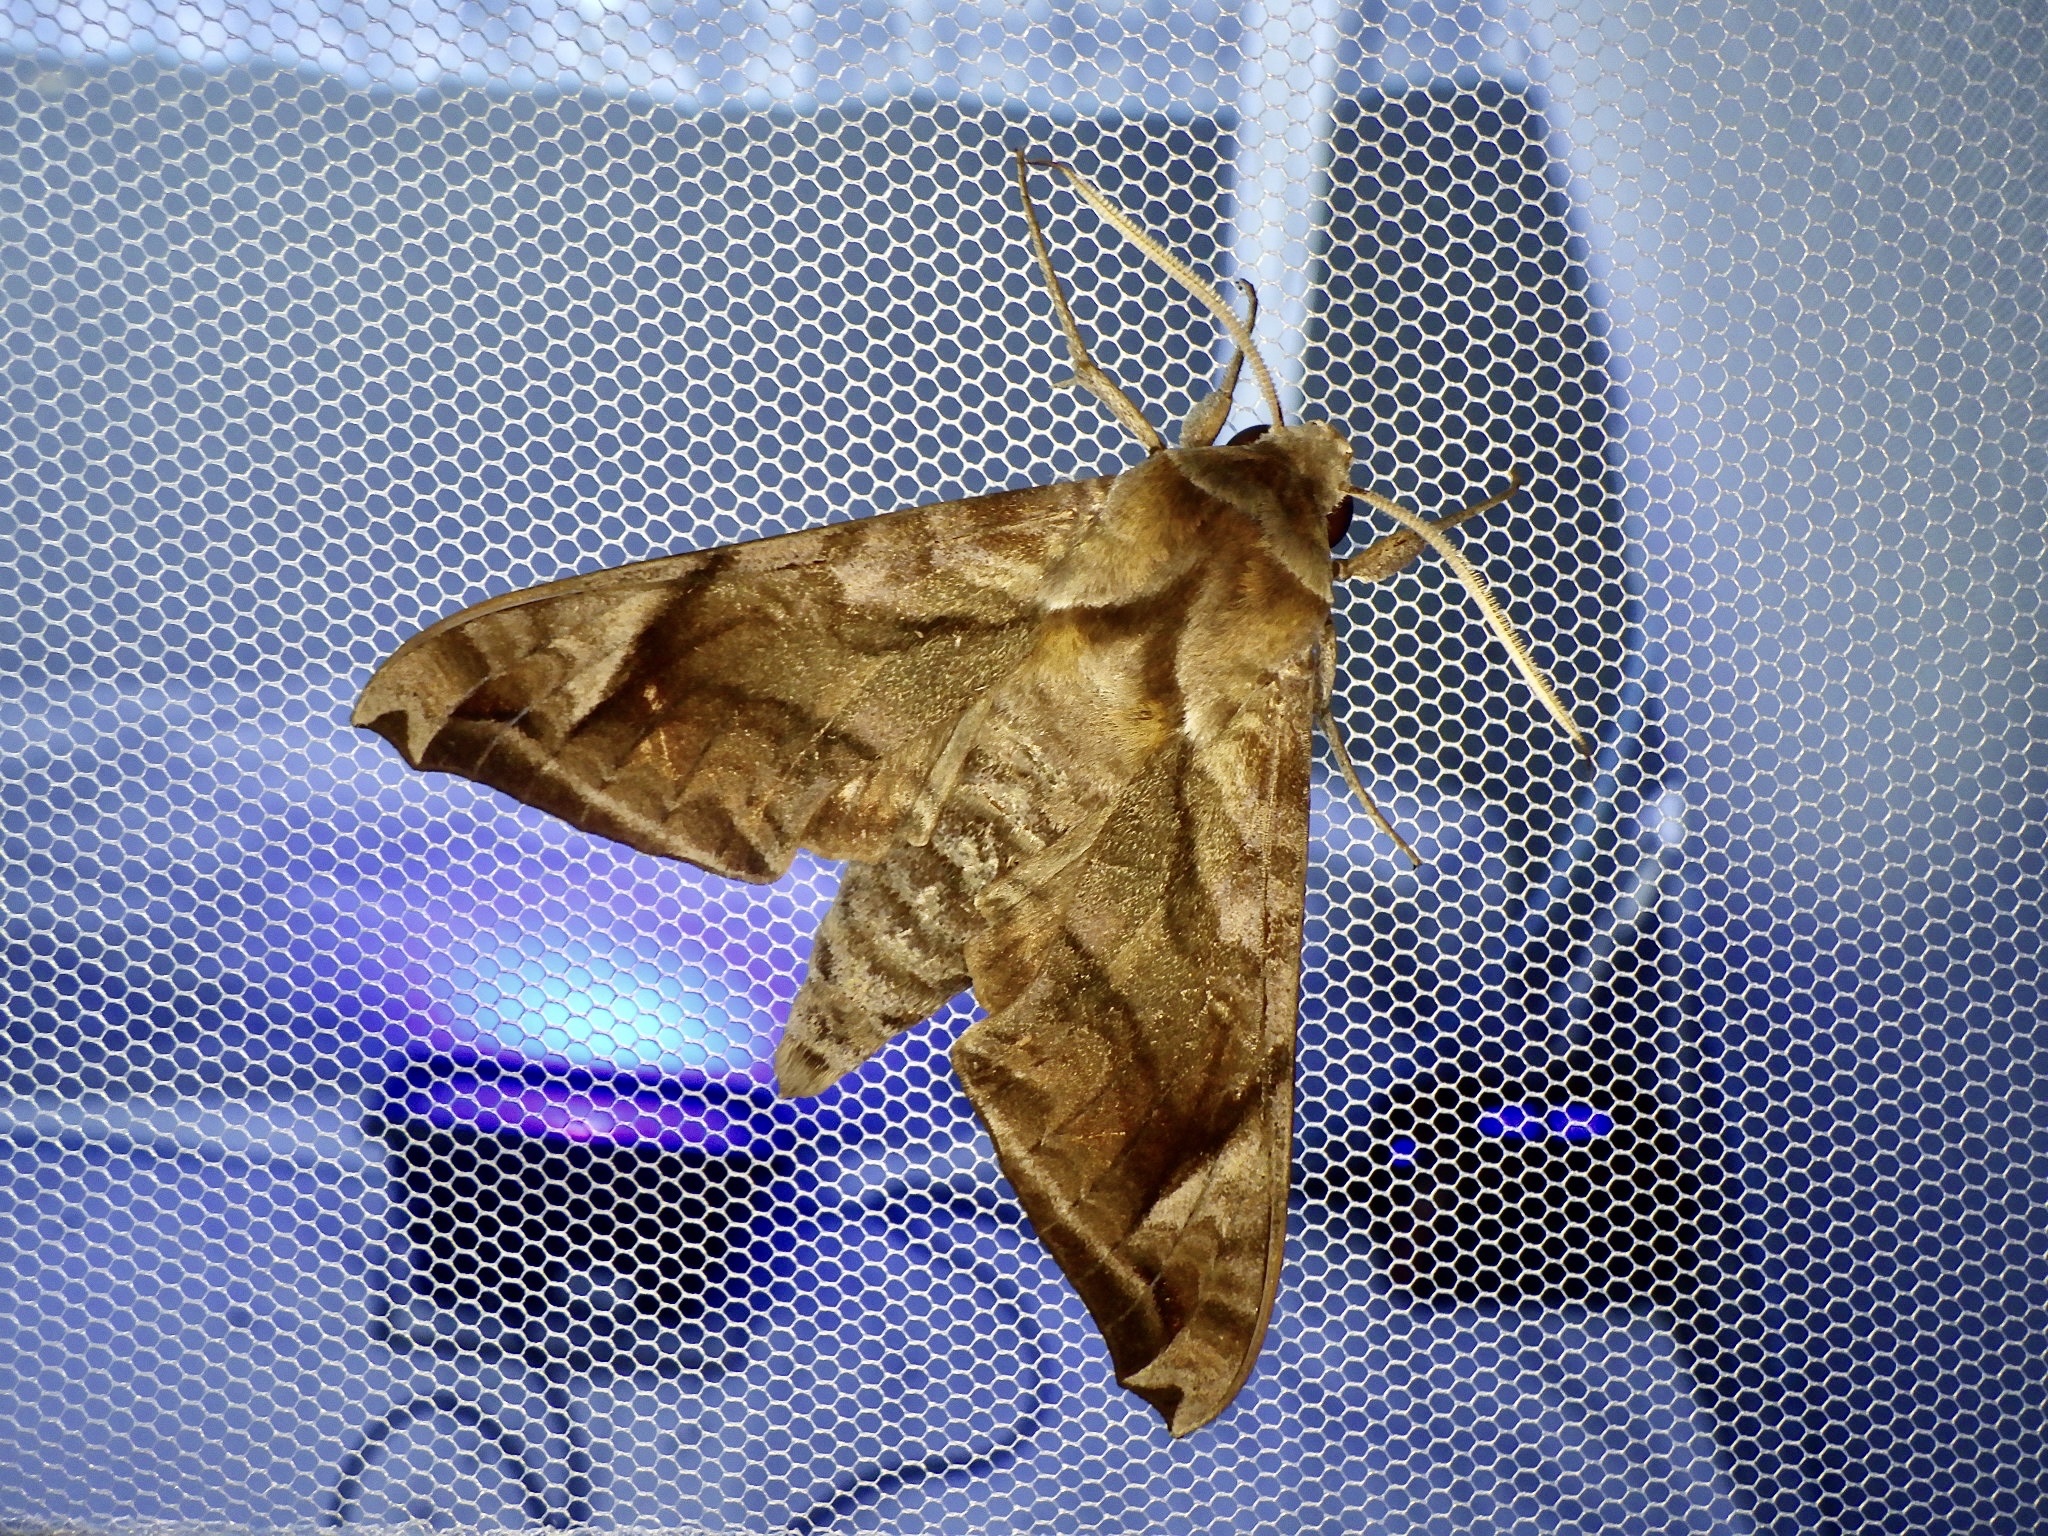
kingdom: Animalia
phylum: Arthropoda
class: Insecta
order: Lepidoptera
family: Sphingidae
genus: Acosmeryx
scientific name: Acosmeryx naga
